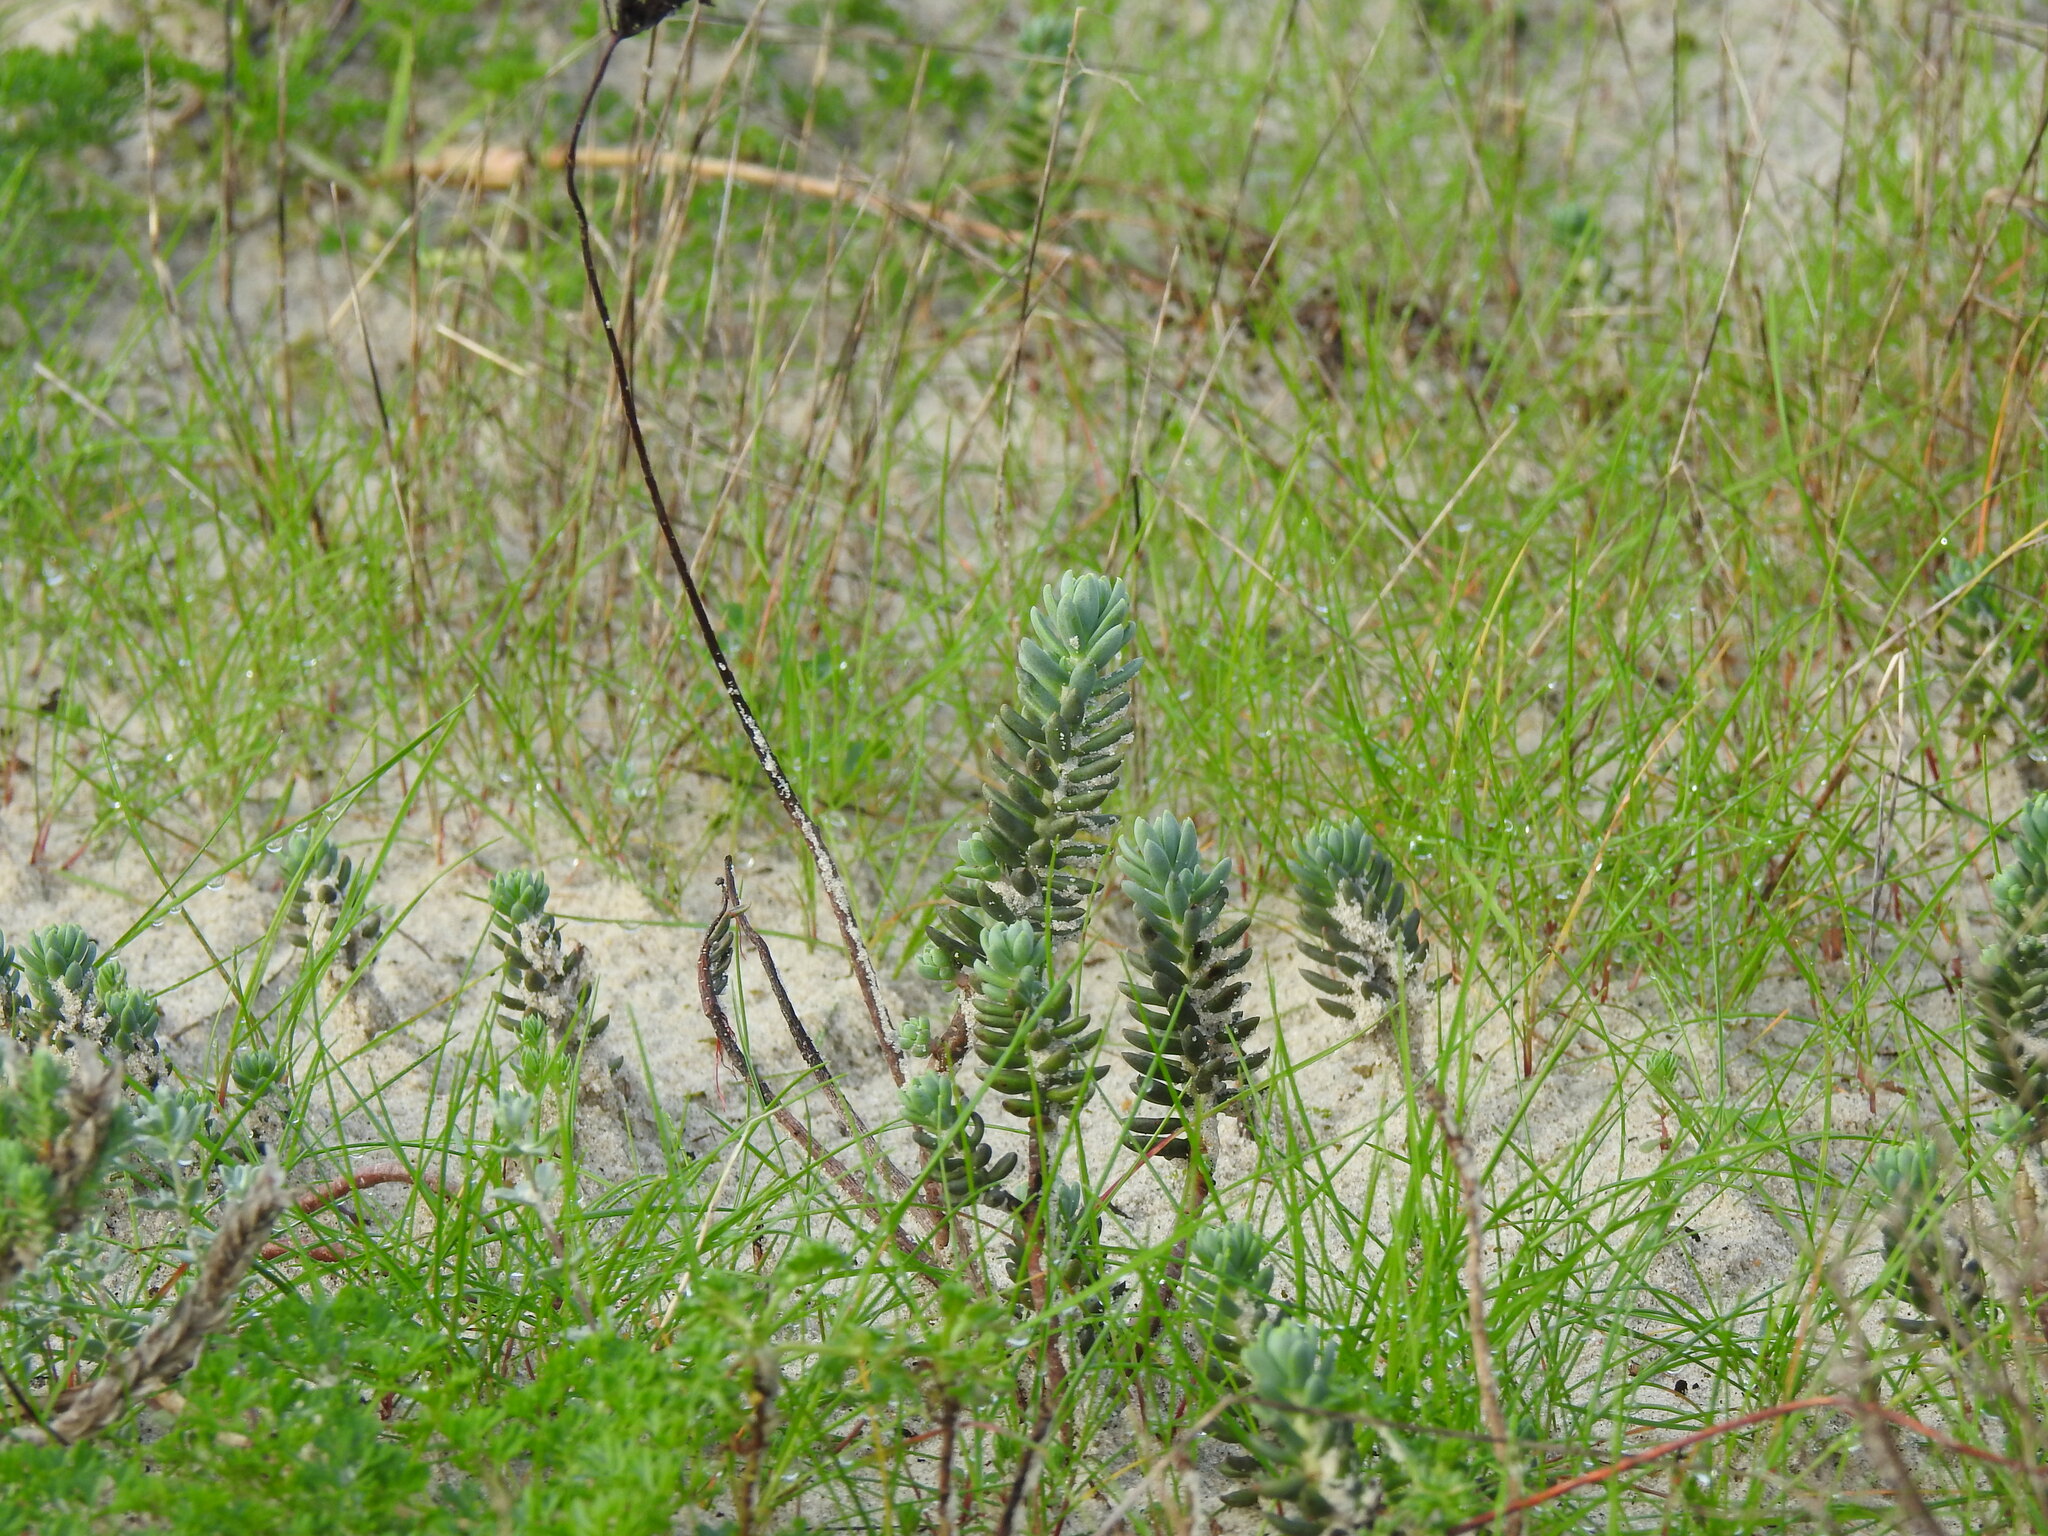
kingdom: Plantae
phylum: Tracheophyta
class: Magnoliopsida
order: Saxifragales
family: Crassulaceae
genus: Petrosedum
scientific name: Petrosedum sediforme
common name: Pale stonecrop
